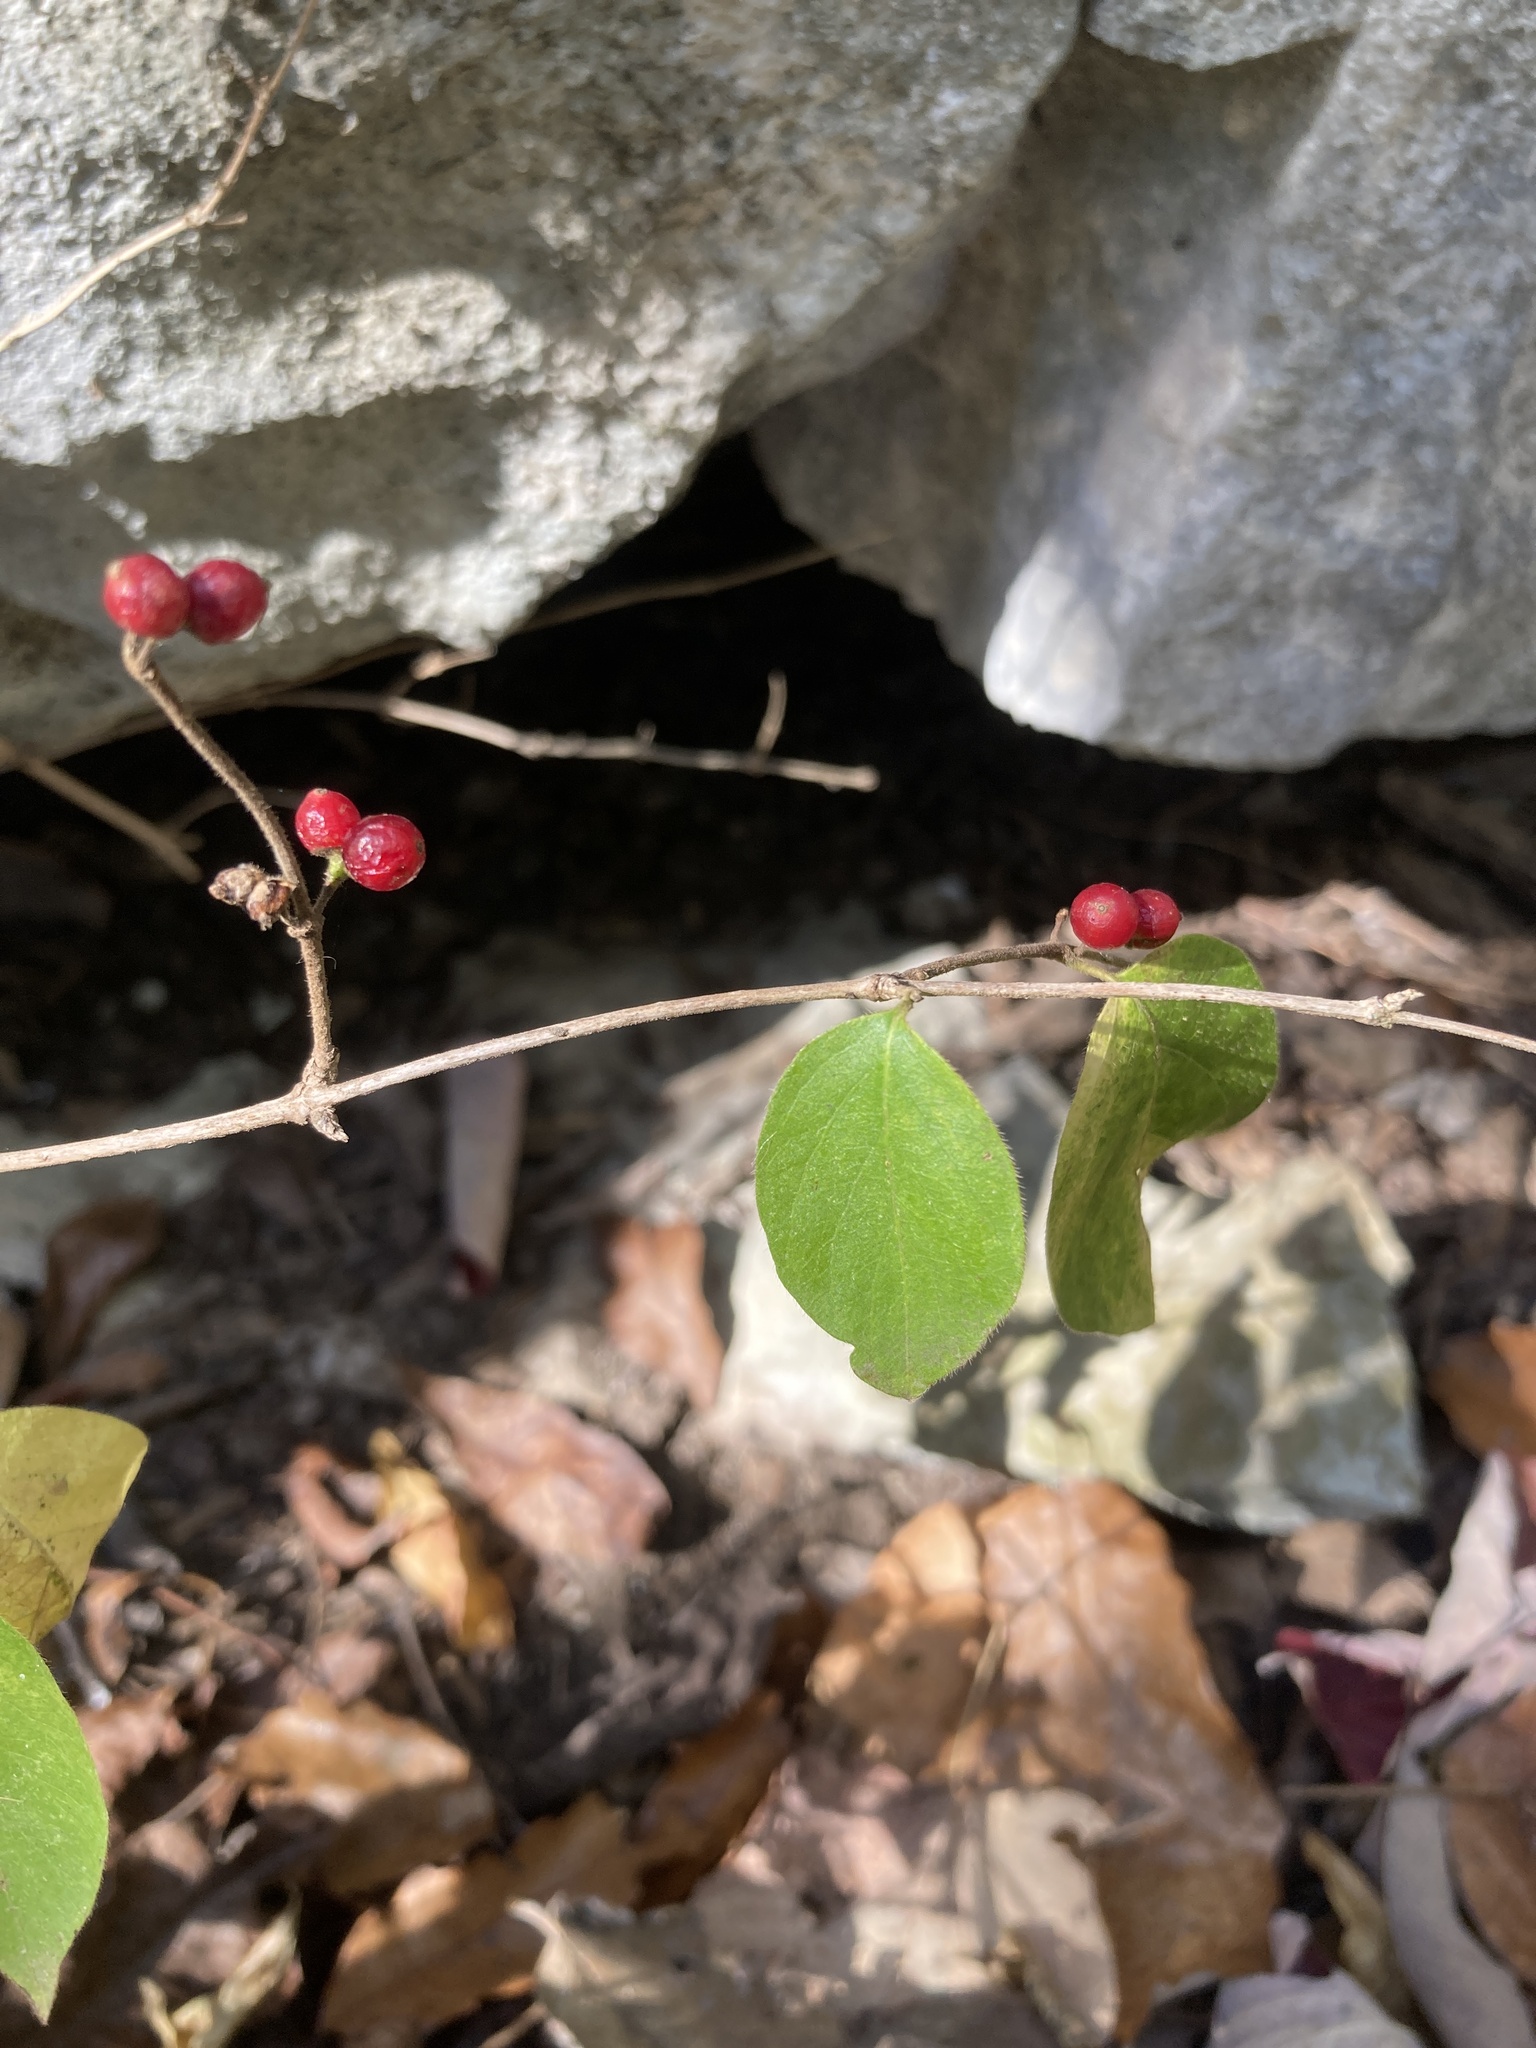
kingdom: Plantae
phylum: Tracheophyta
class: Magnoliopsida
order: Dipsacales
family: Caprifoliaceae
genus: Lonicera
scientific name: Lonicera maackii
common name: Amur honeysuckle
